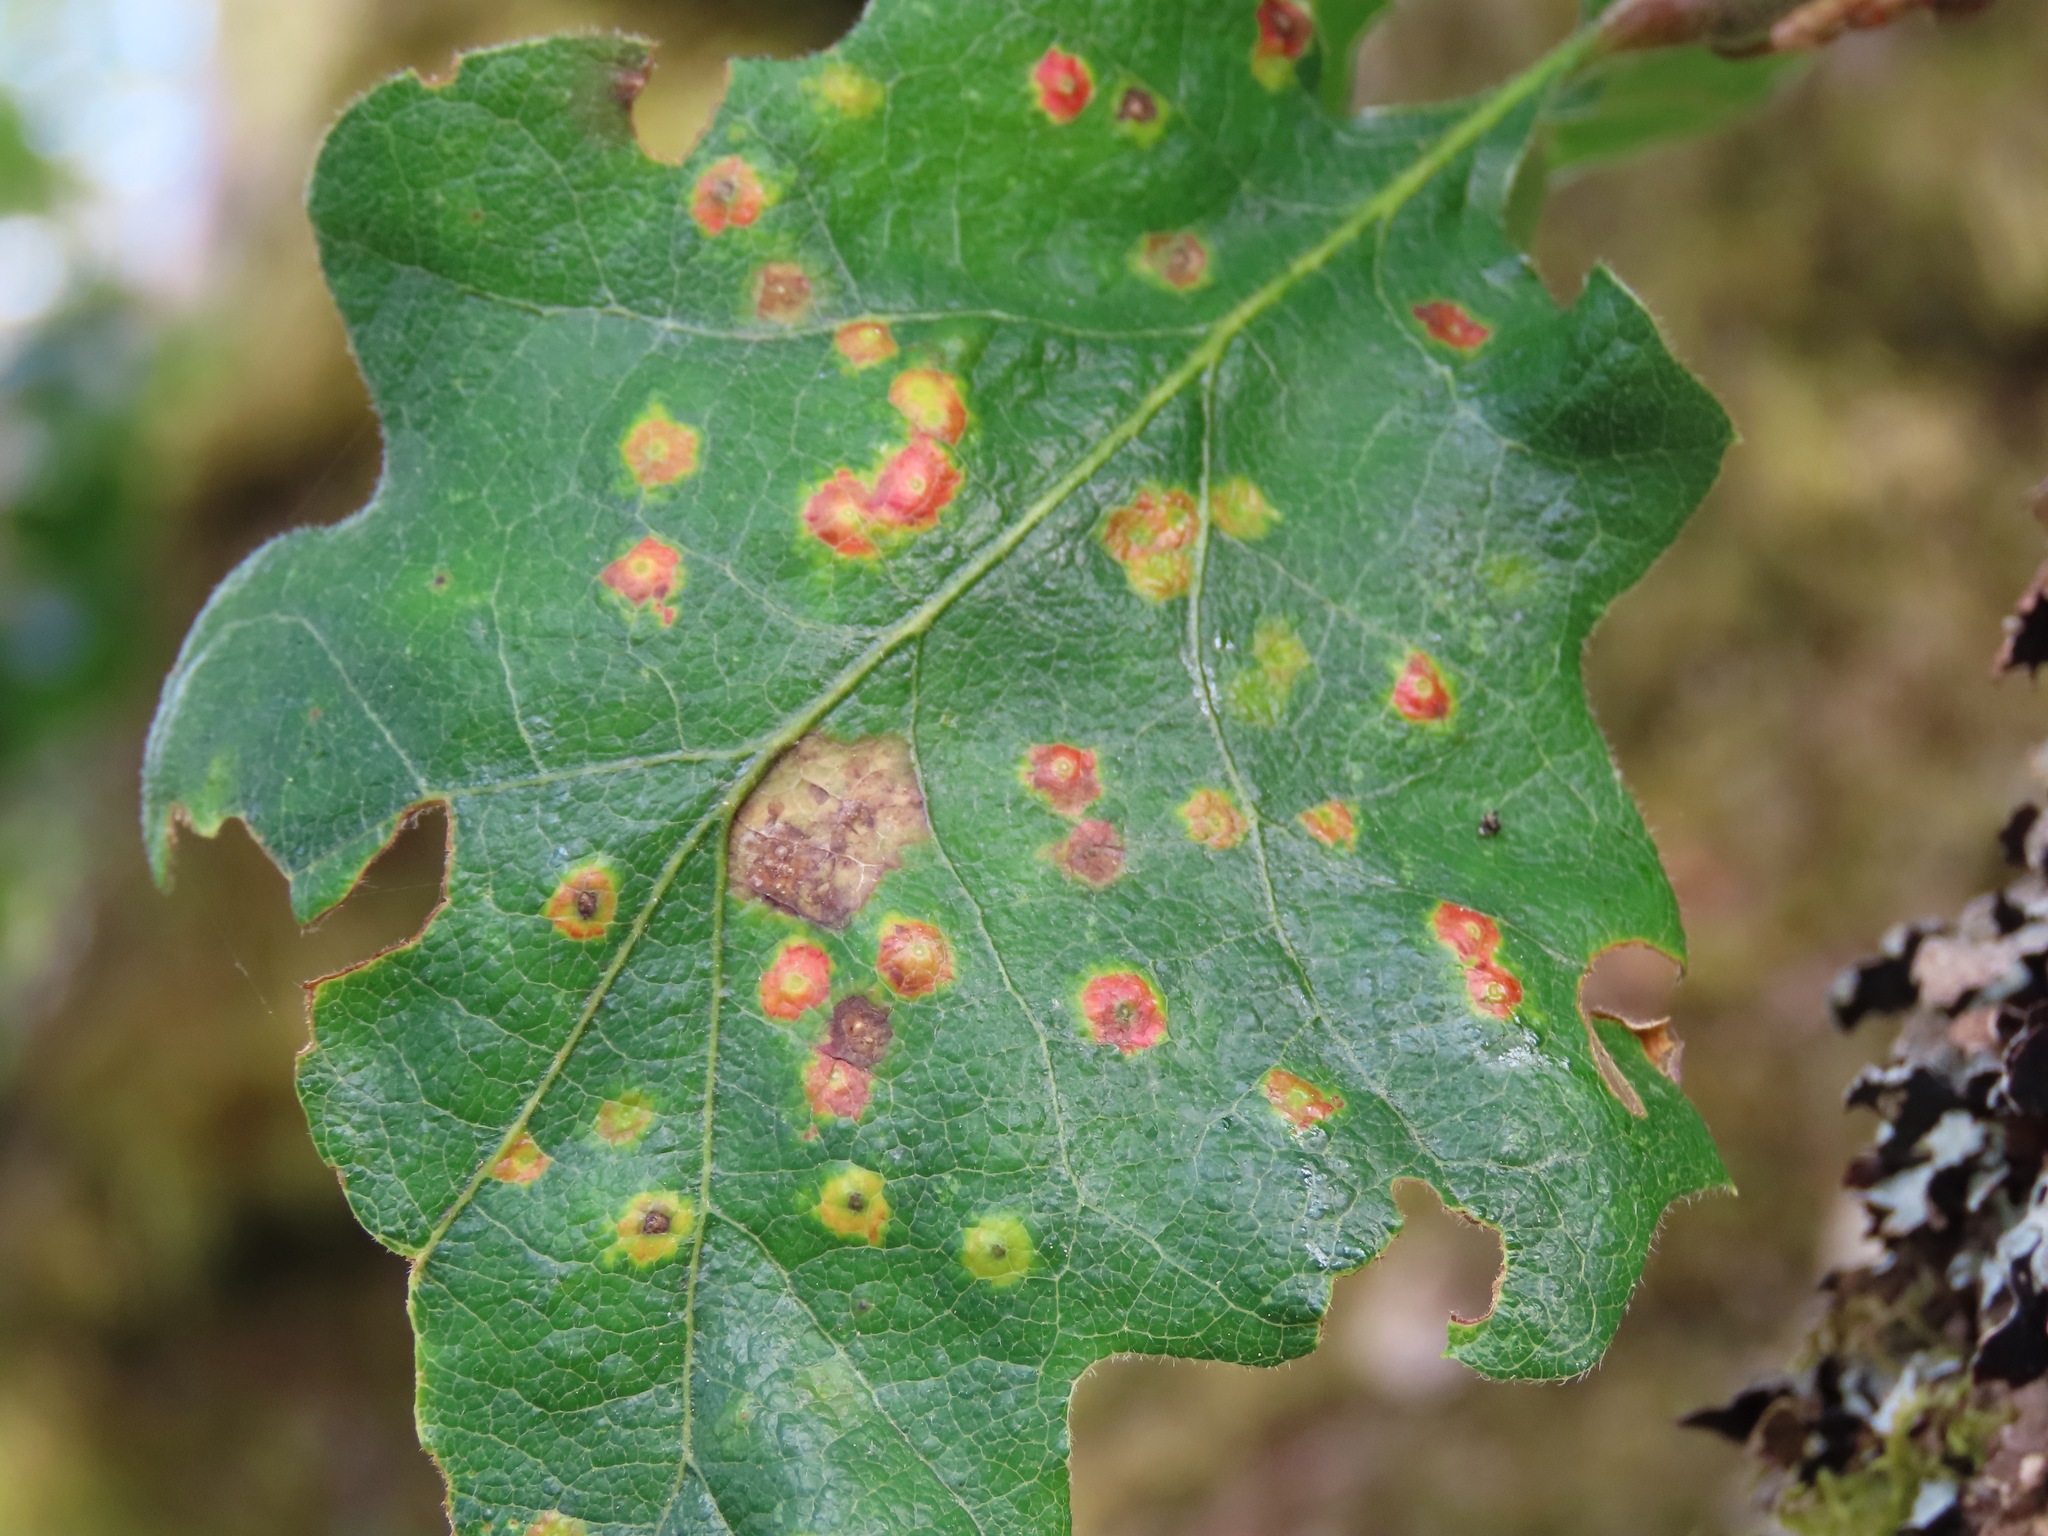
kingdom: Animalia
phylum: Arthropoda
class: Insecta
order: Hymenoptera
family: Cynipidae
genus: Neuroterus
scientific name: Neuroterus saltarius
